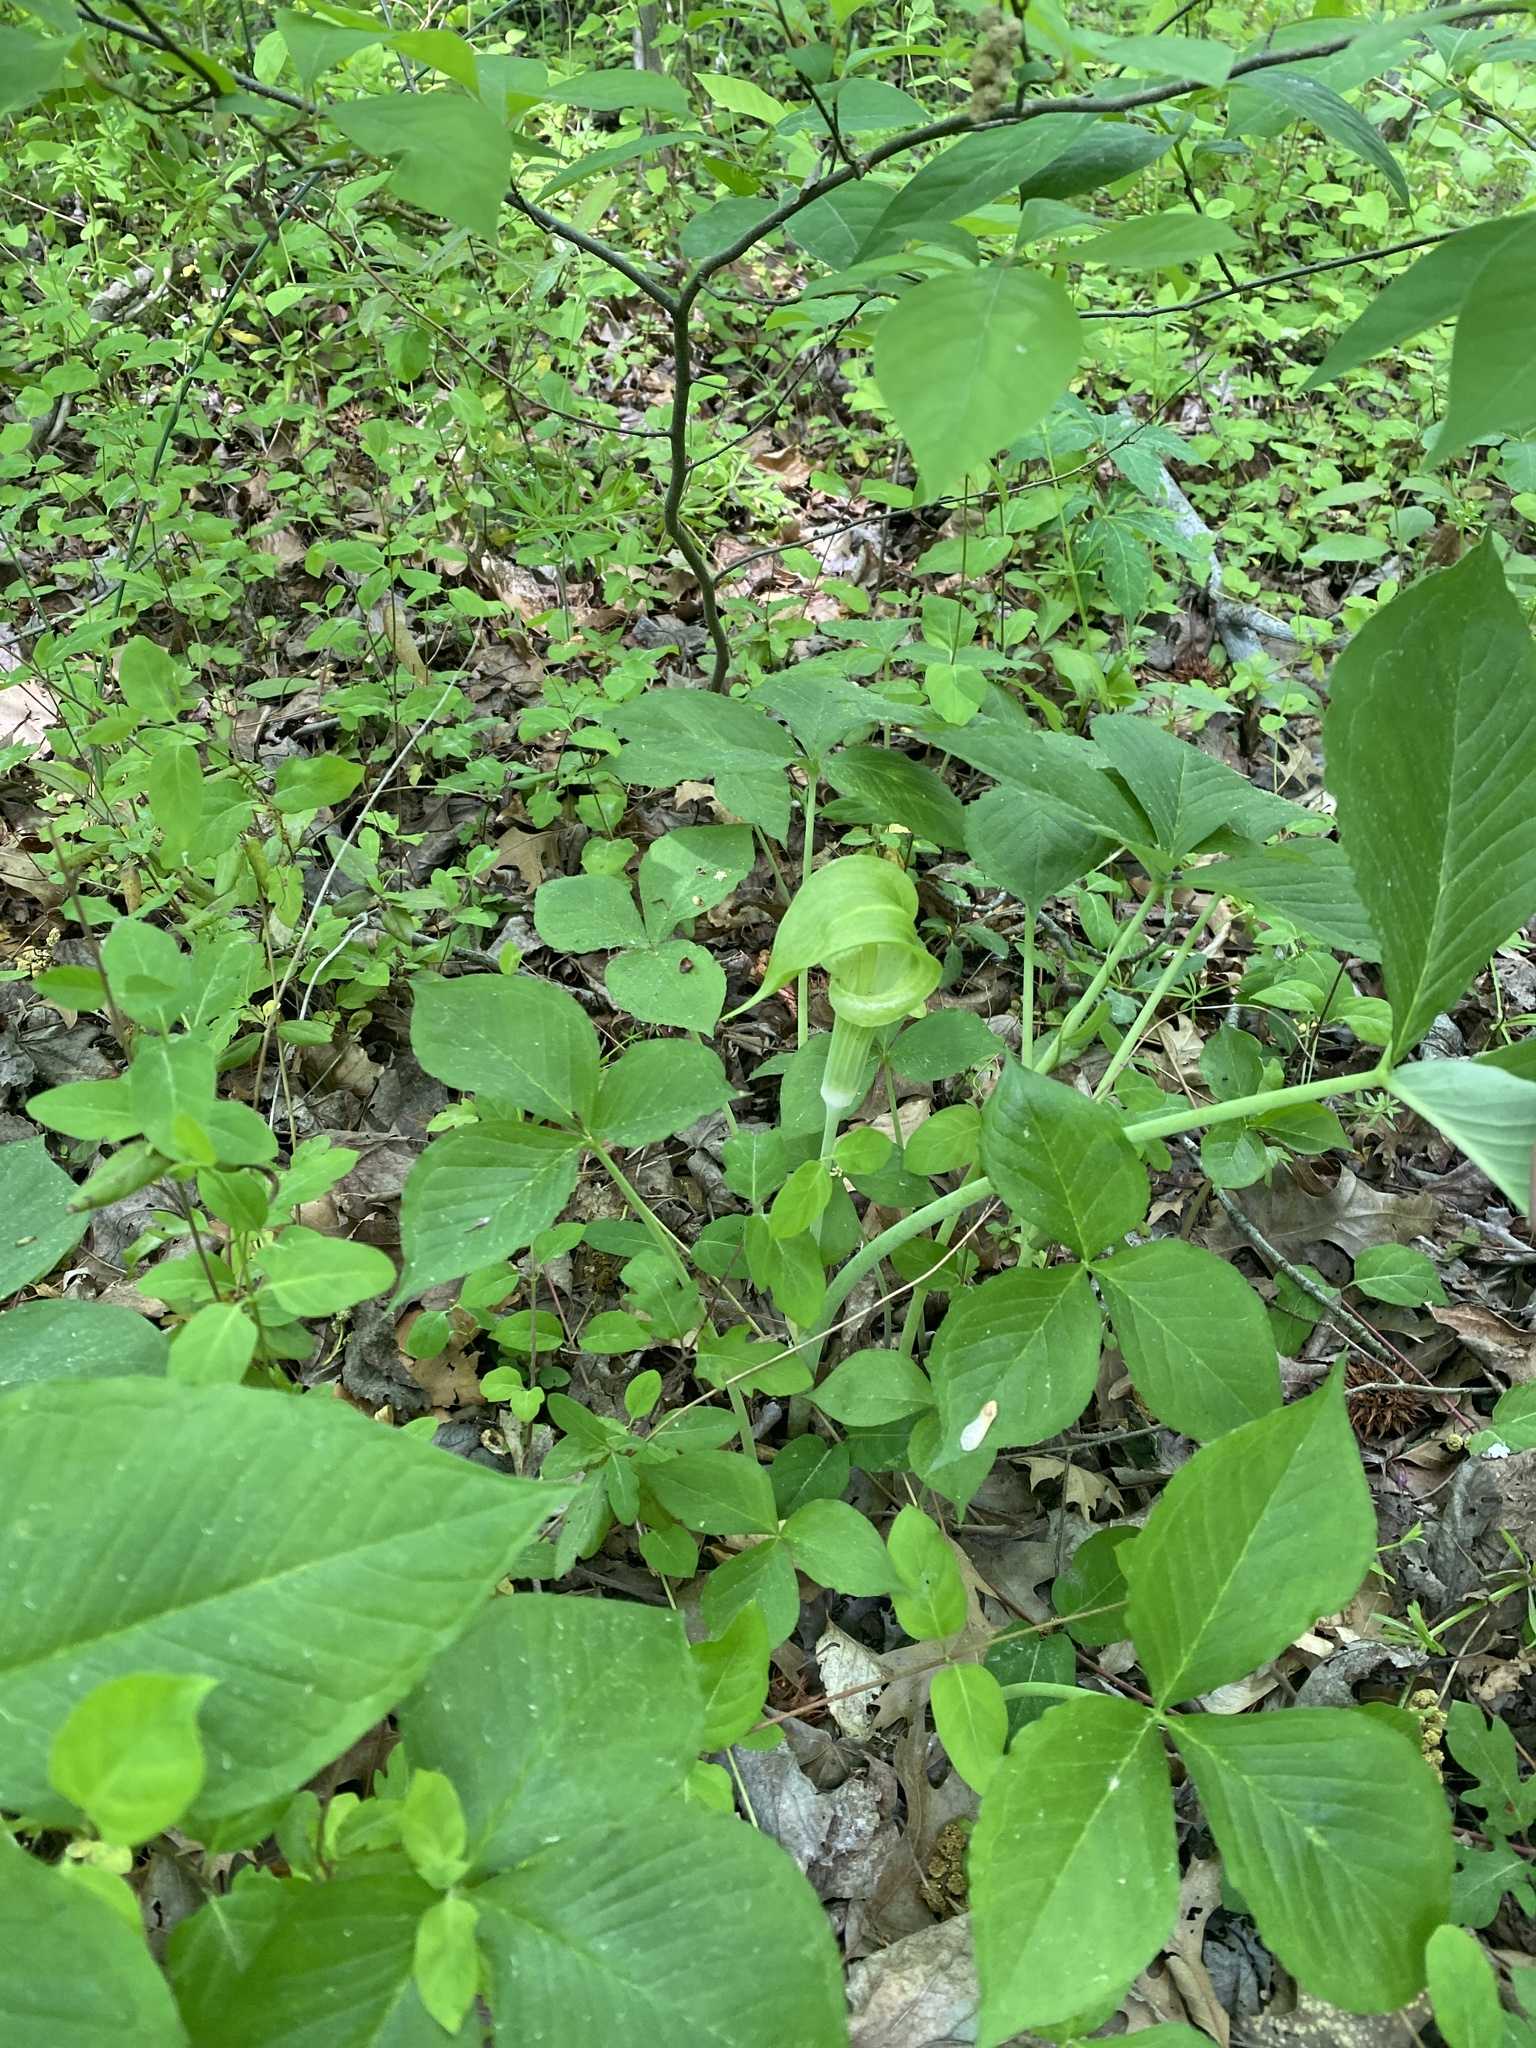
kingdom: Plantae
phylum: Tracheophyta
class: Liliopsida
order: Alismatales
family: Araceae
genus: Arisaema
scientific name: Arisaema triphyllum
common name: Jack-in-the-pulpit
